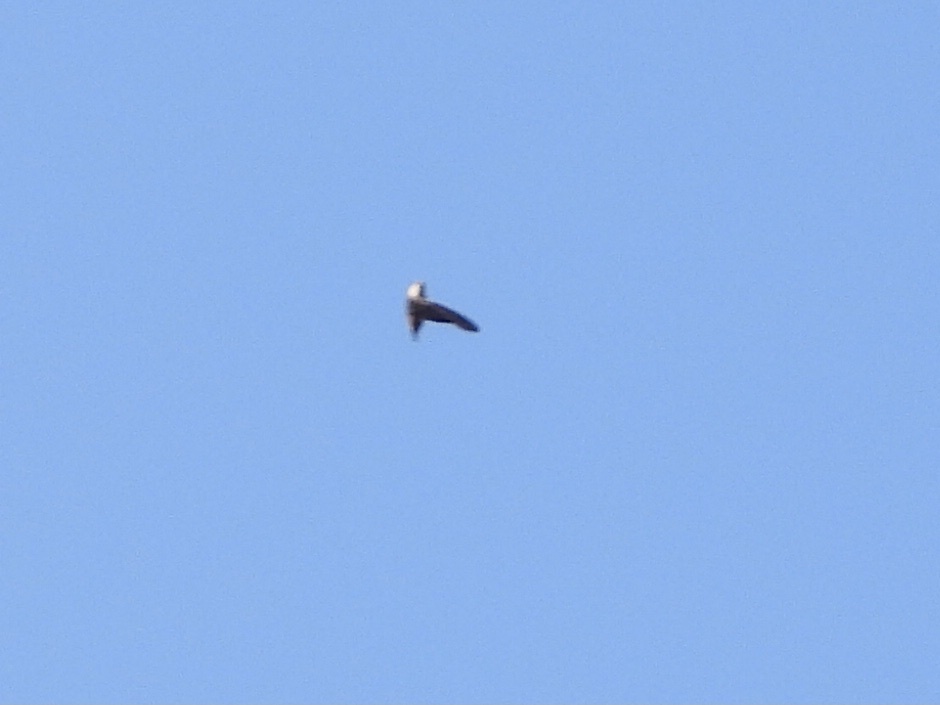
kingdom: Animalia
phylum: Chordata
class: Aves
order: Apodiformes
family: Apodidae
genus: Chaetura
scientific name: Chaetura vauxi
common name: Vaux's swift
